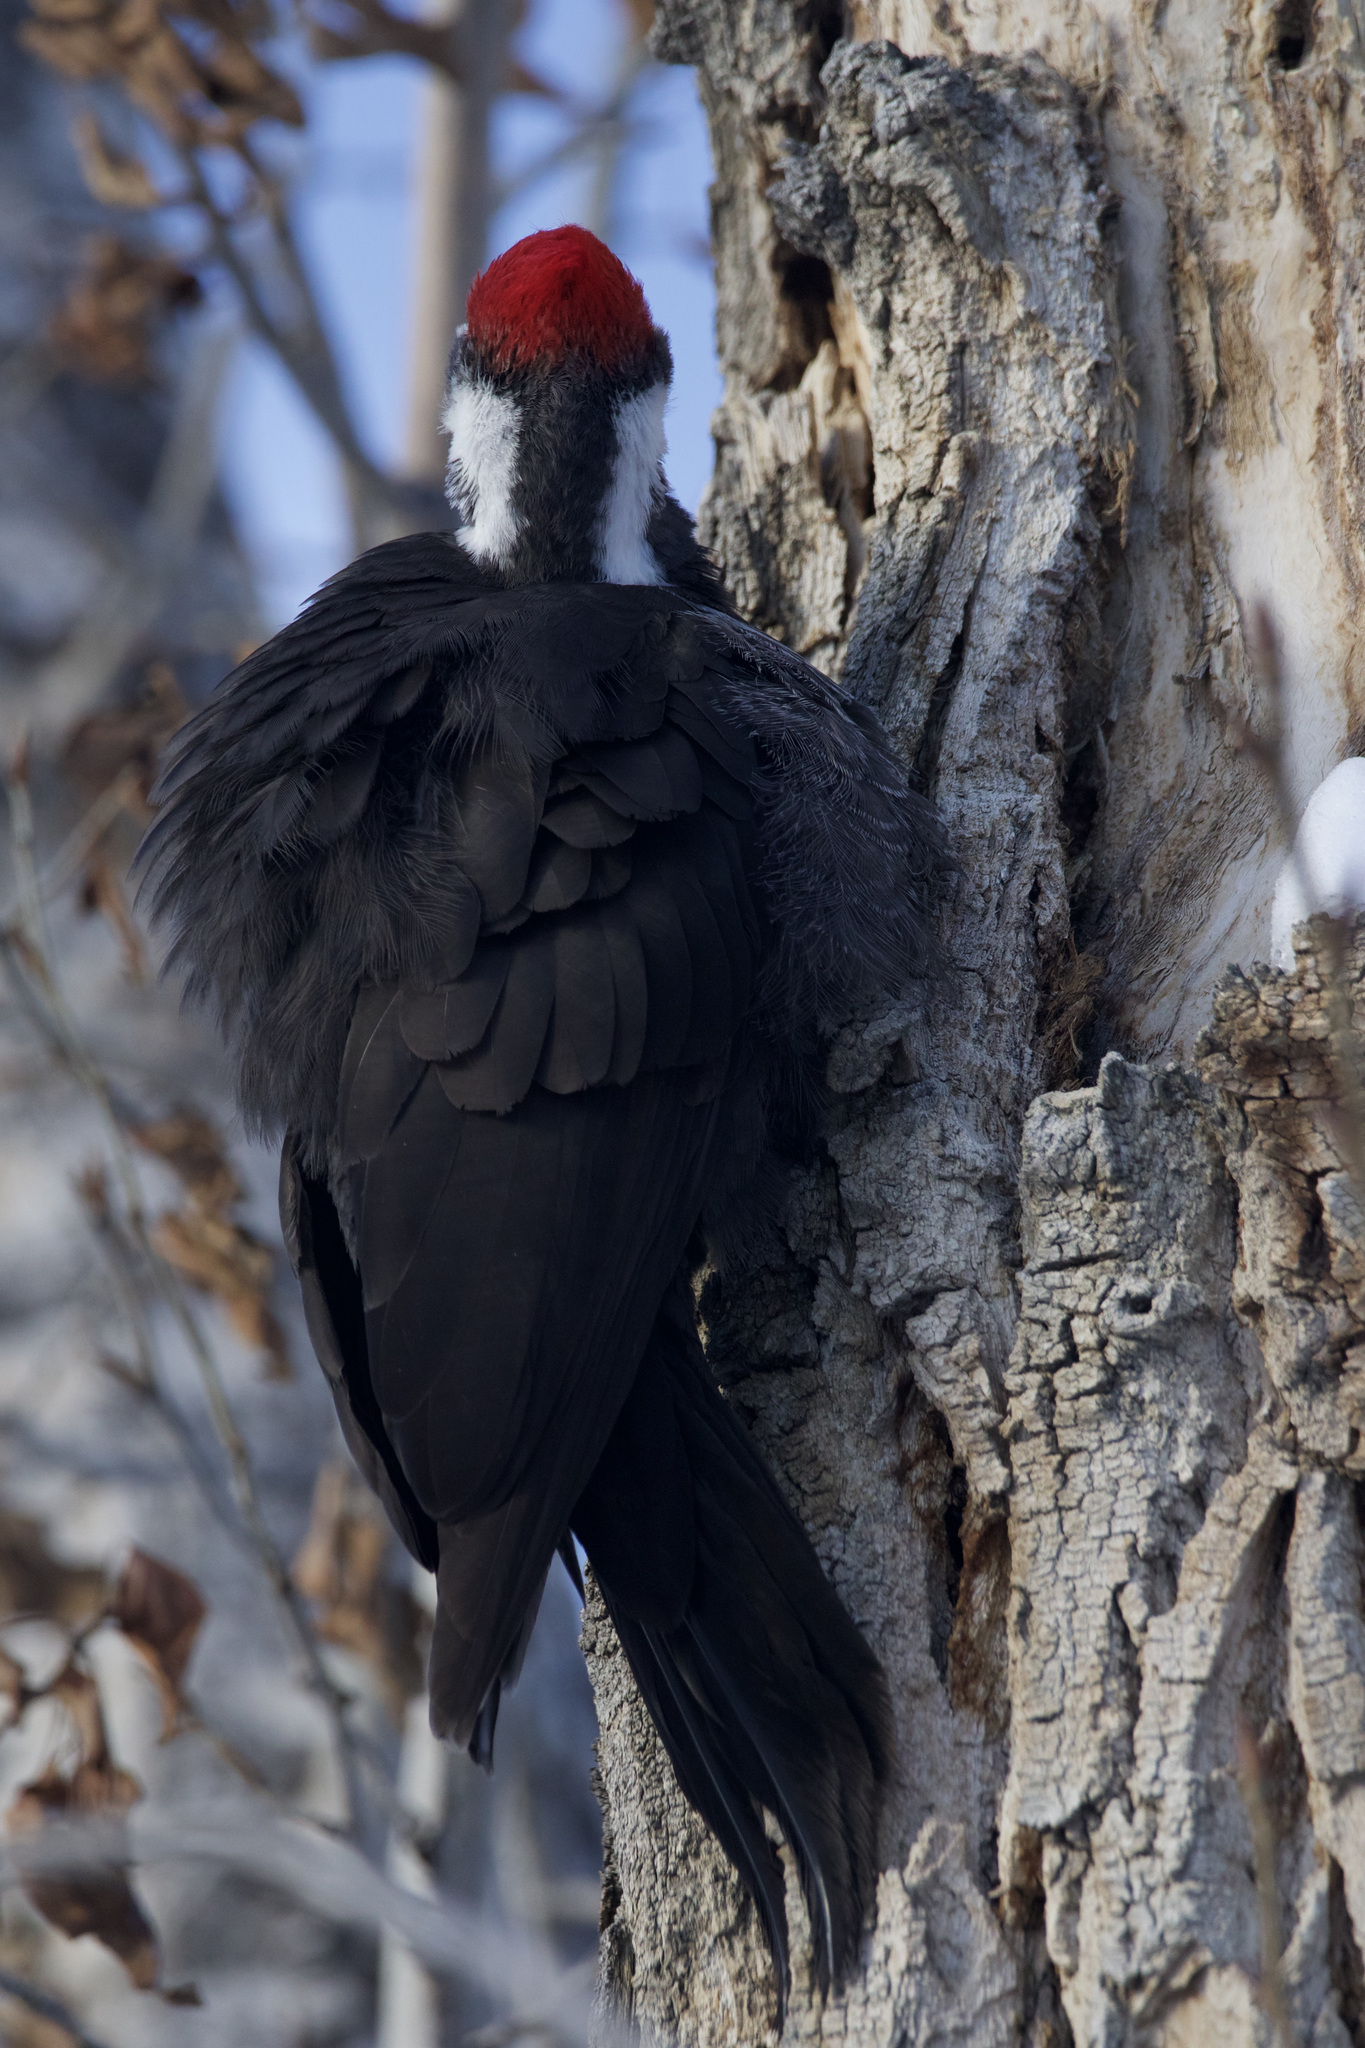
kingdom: Animalia
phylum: Chordata
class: Aves
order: Piciformes
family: Picidae
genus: Dryocopus
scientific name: Dryocopus pileatus
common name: Pileated woodpecker
